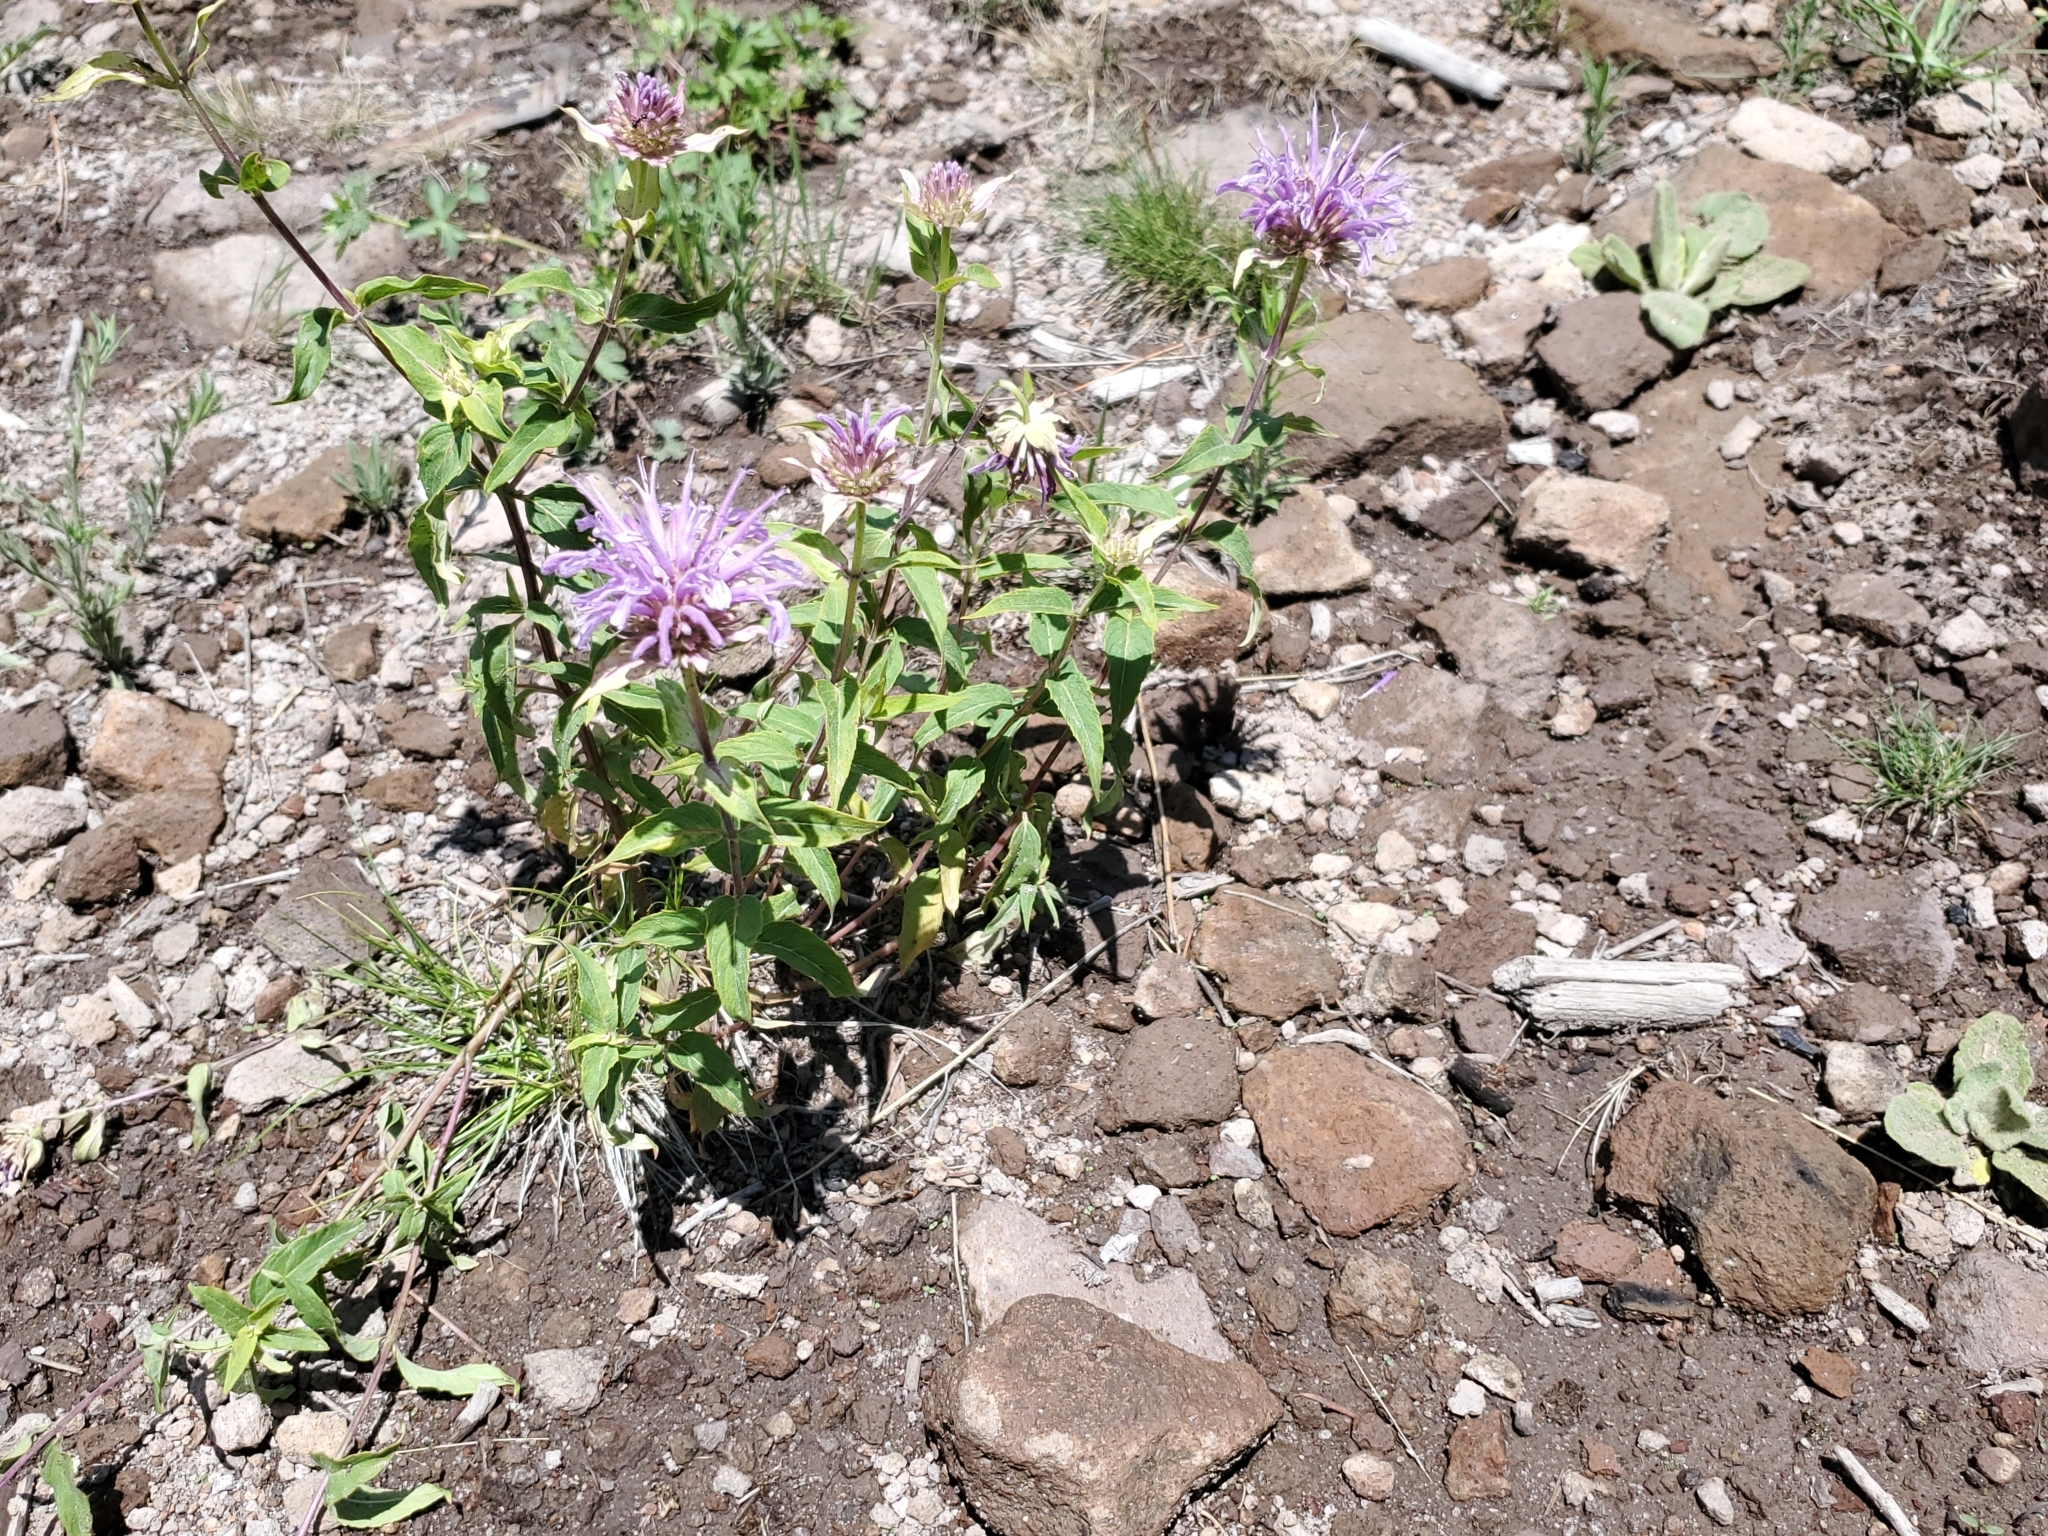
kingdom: Plantae
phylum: Tracheophyta
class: Magnoliopsida
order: Lamiales
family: Lamiaceae
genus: Monarda
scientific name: Monarda fistulosa
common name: Purple beebalm
